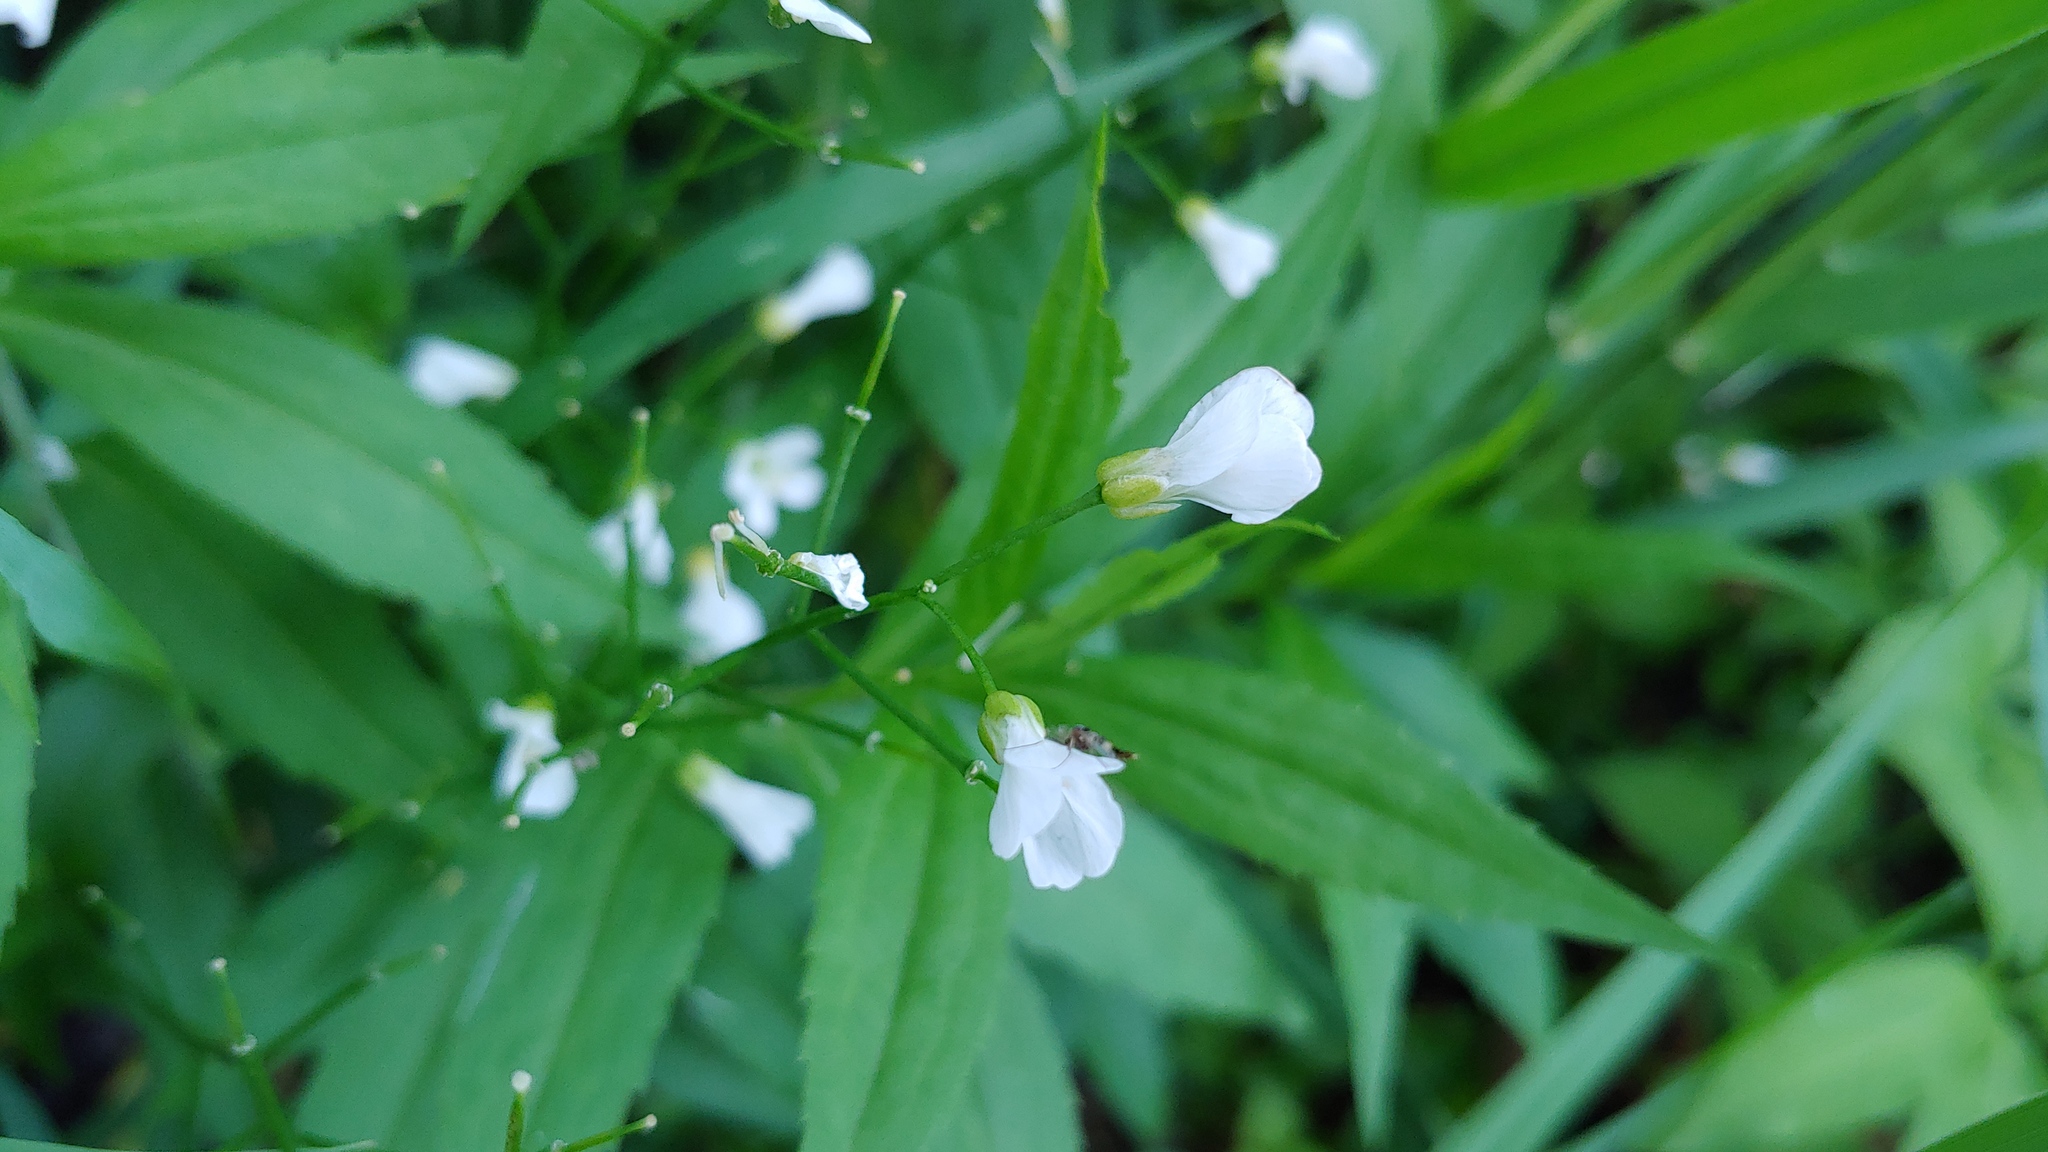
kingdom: Plantae
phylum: Tracheophyta
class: Magnoliopsida
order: Brassicales
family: Brassicaceae
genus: Cardamine
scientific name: Cardamine bulbosa
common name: Spring cress
